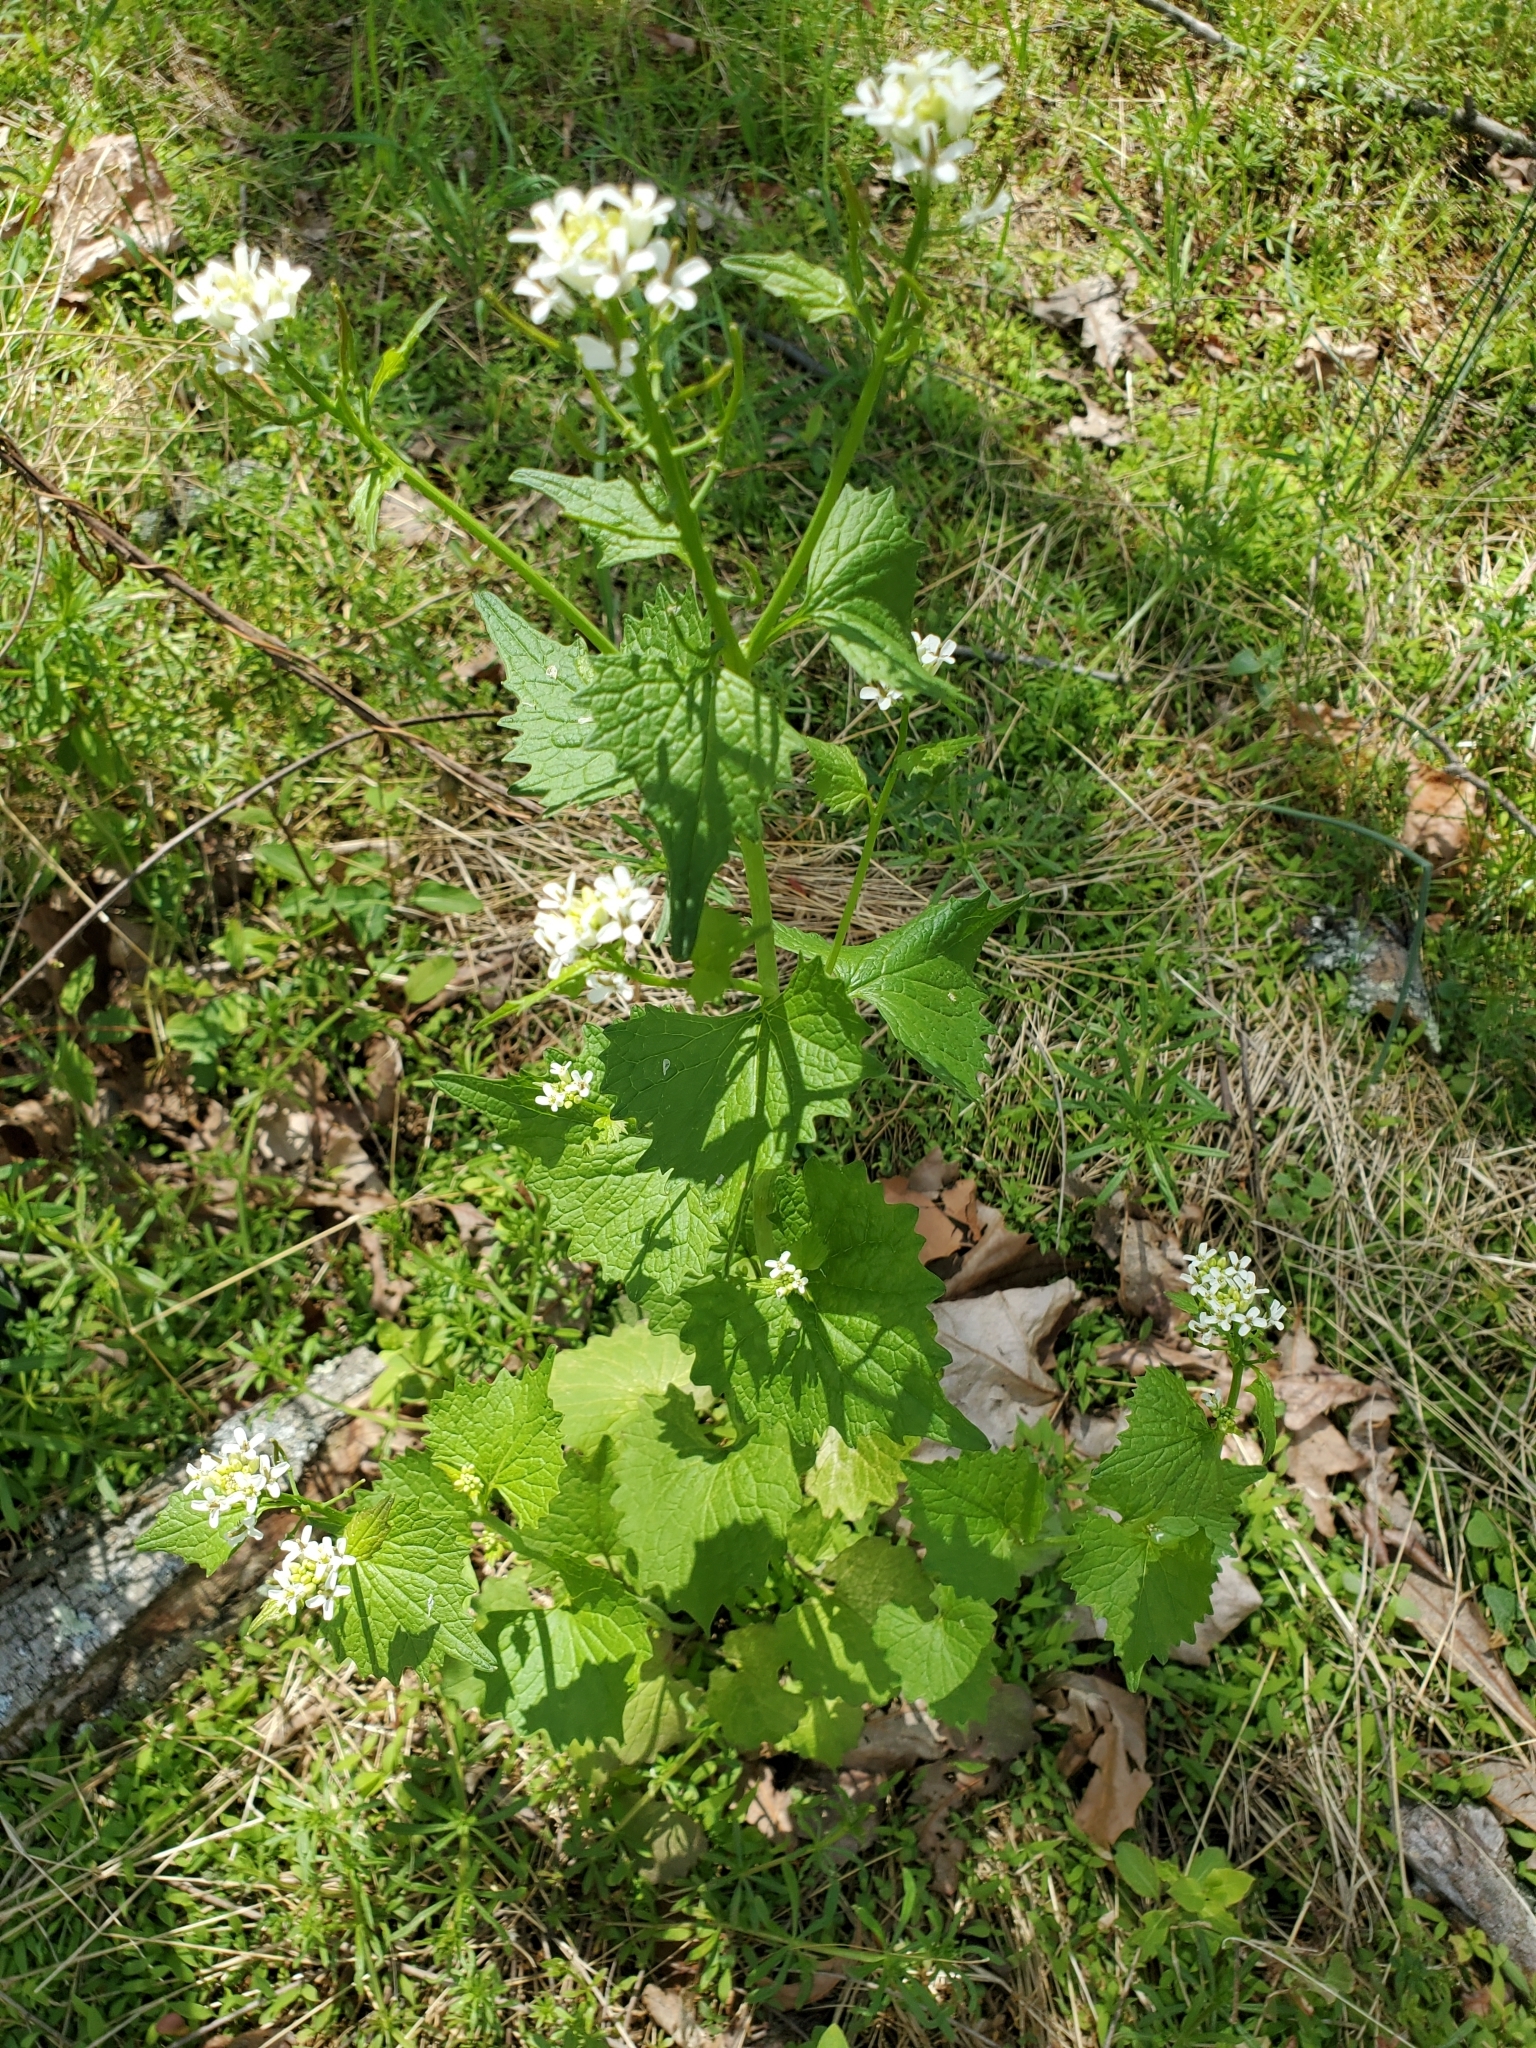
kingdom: Plantae
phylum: Tracheophyta
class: Magnoliopsida
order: Brassicales
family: Brassicaceae
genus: Alliaria
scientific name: Alliaria petiolata
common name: Garlic mustard
